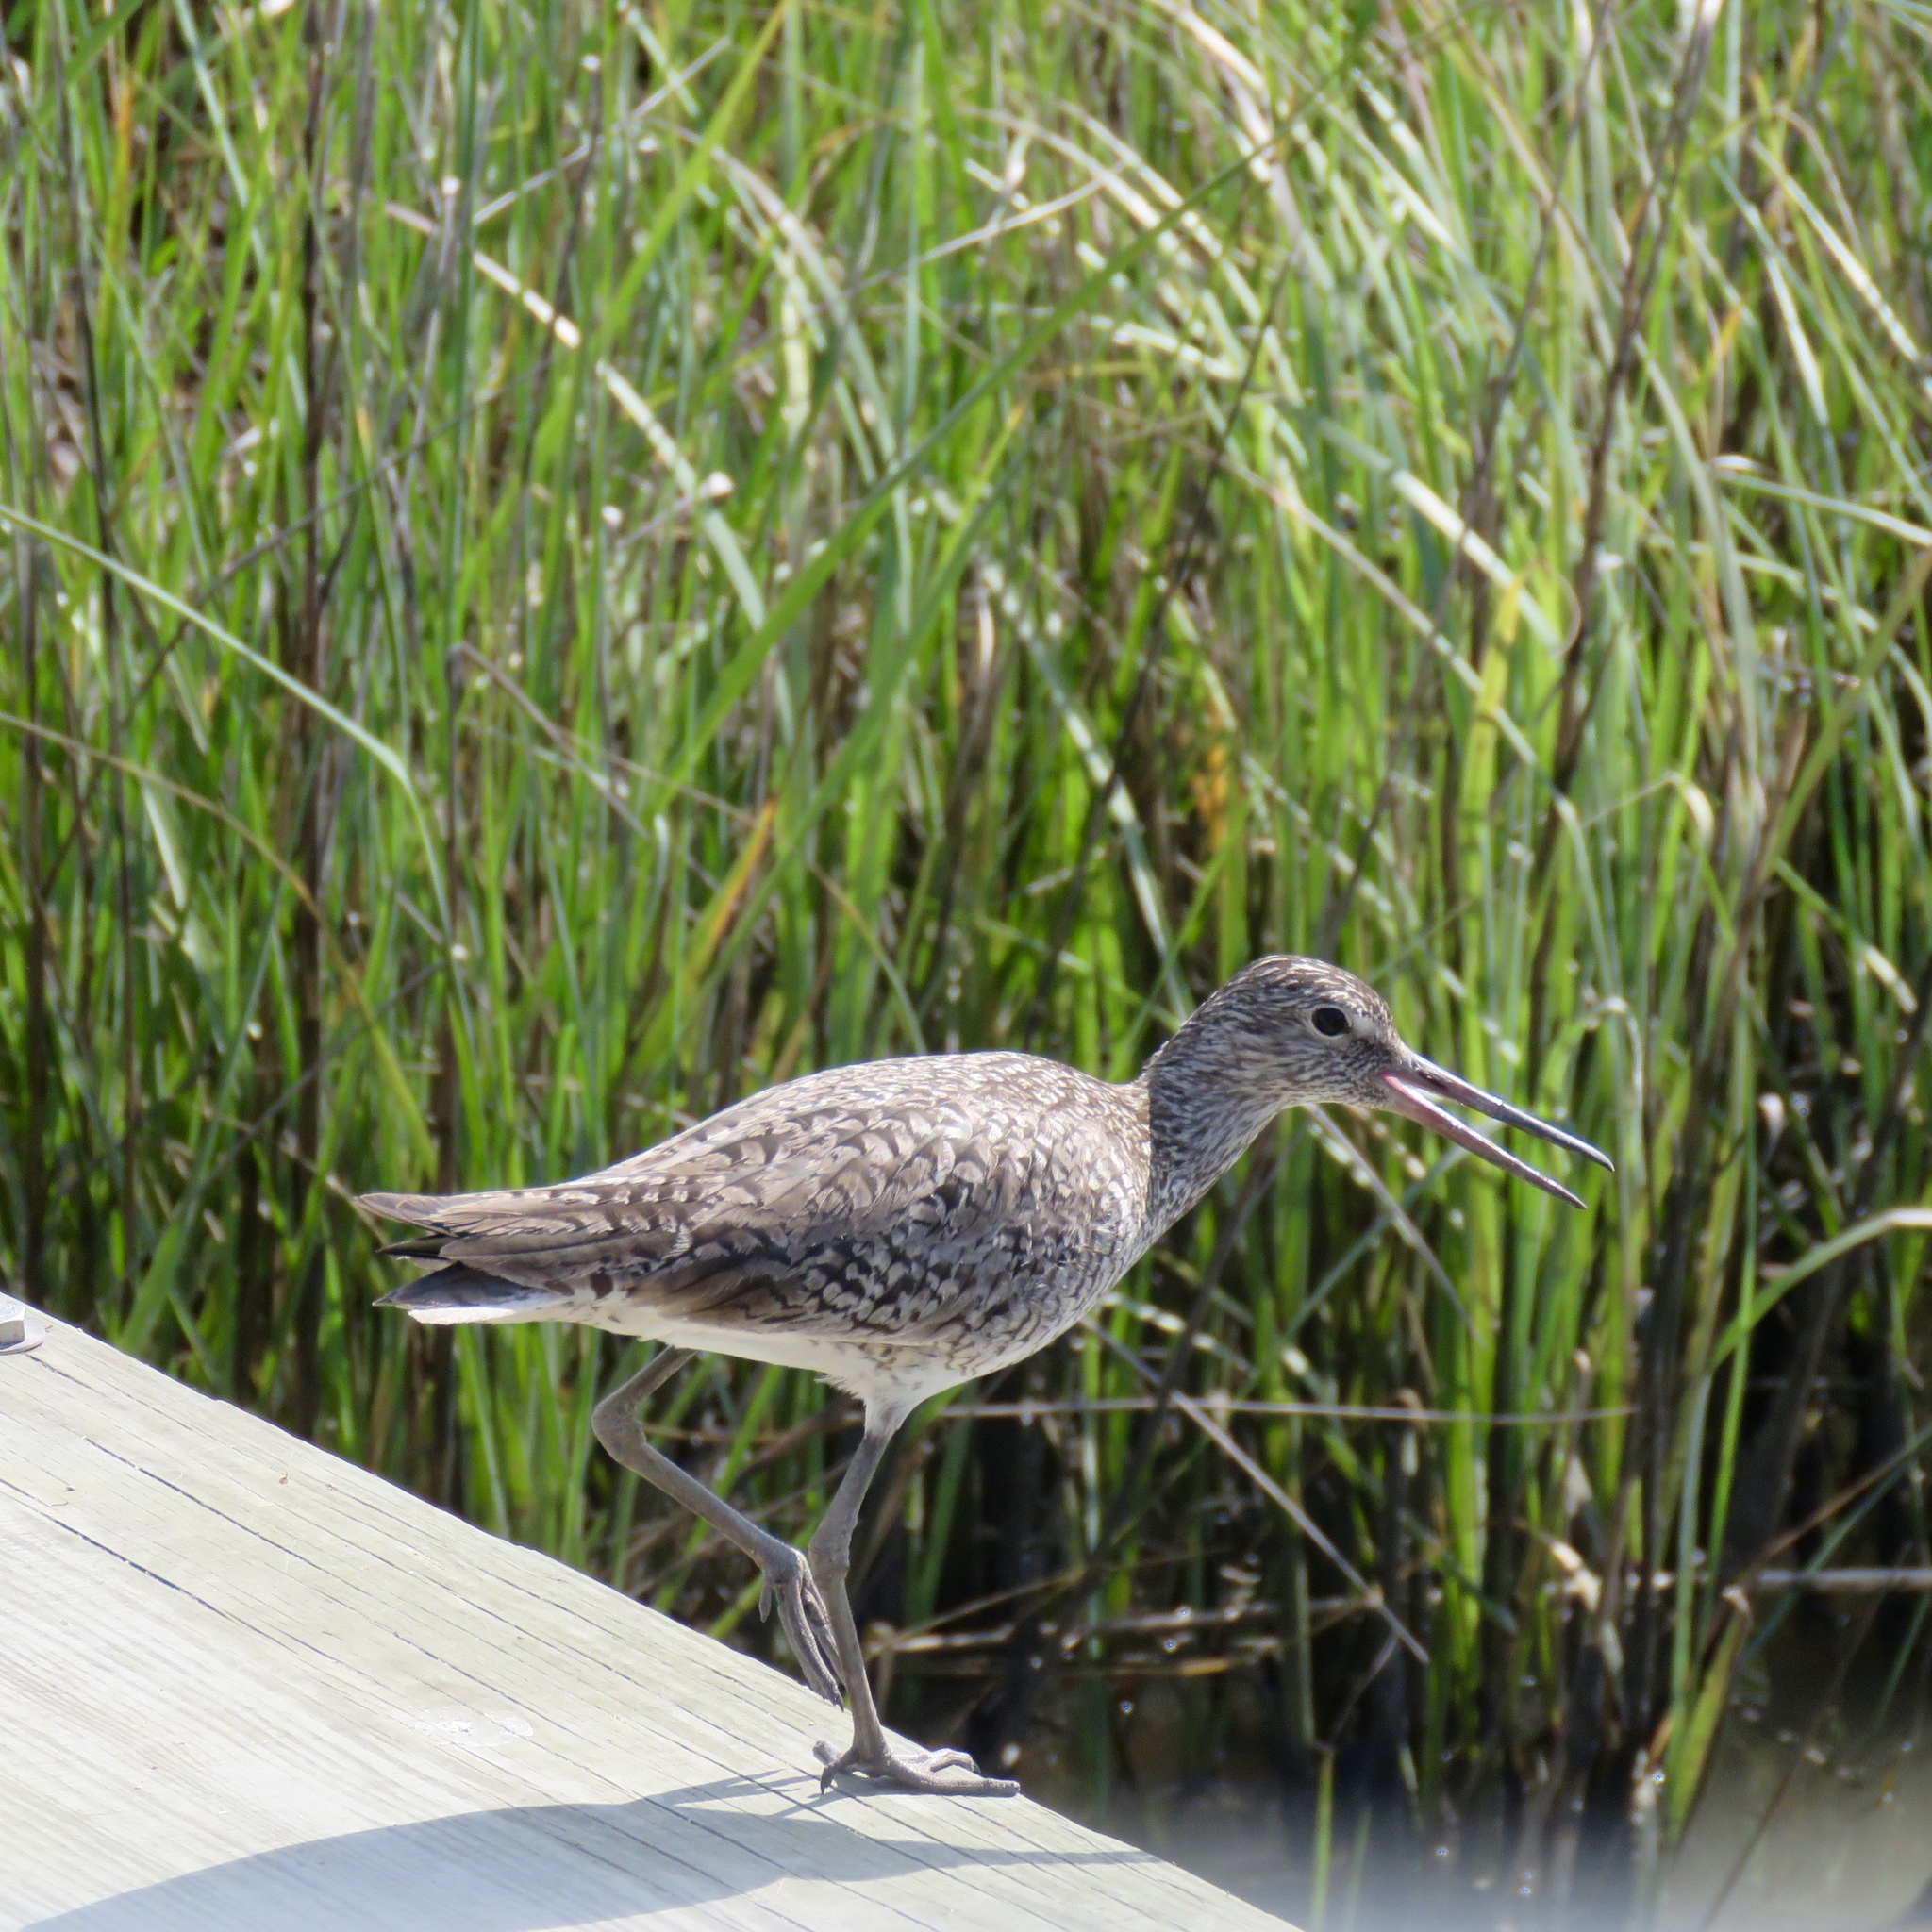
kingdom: Animalia
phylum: Chordata
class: Aves
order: Charadriiformes
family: Scolopacidae
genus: Tringa
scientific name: Tringa semipalmata
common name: Willet
